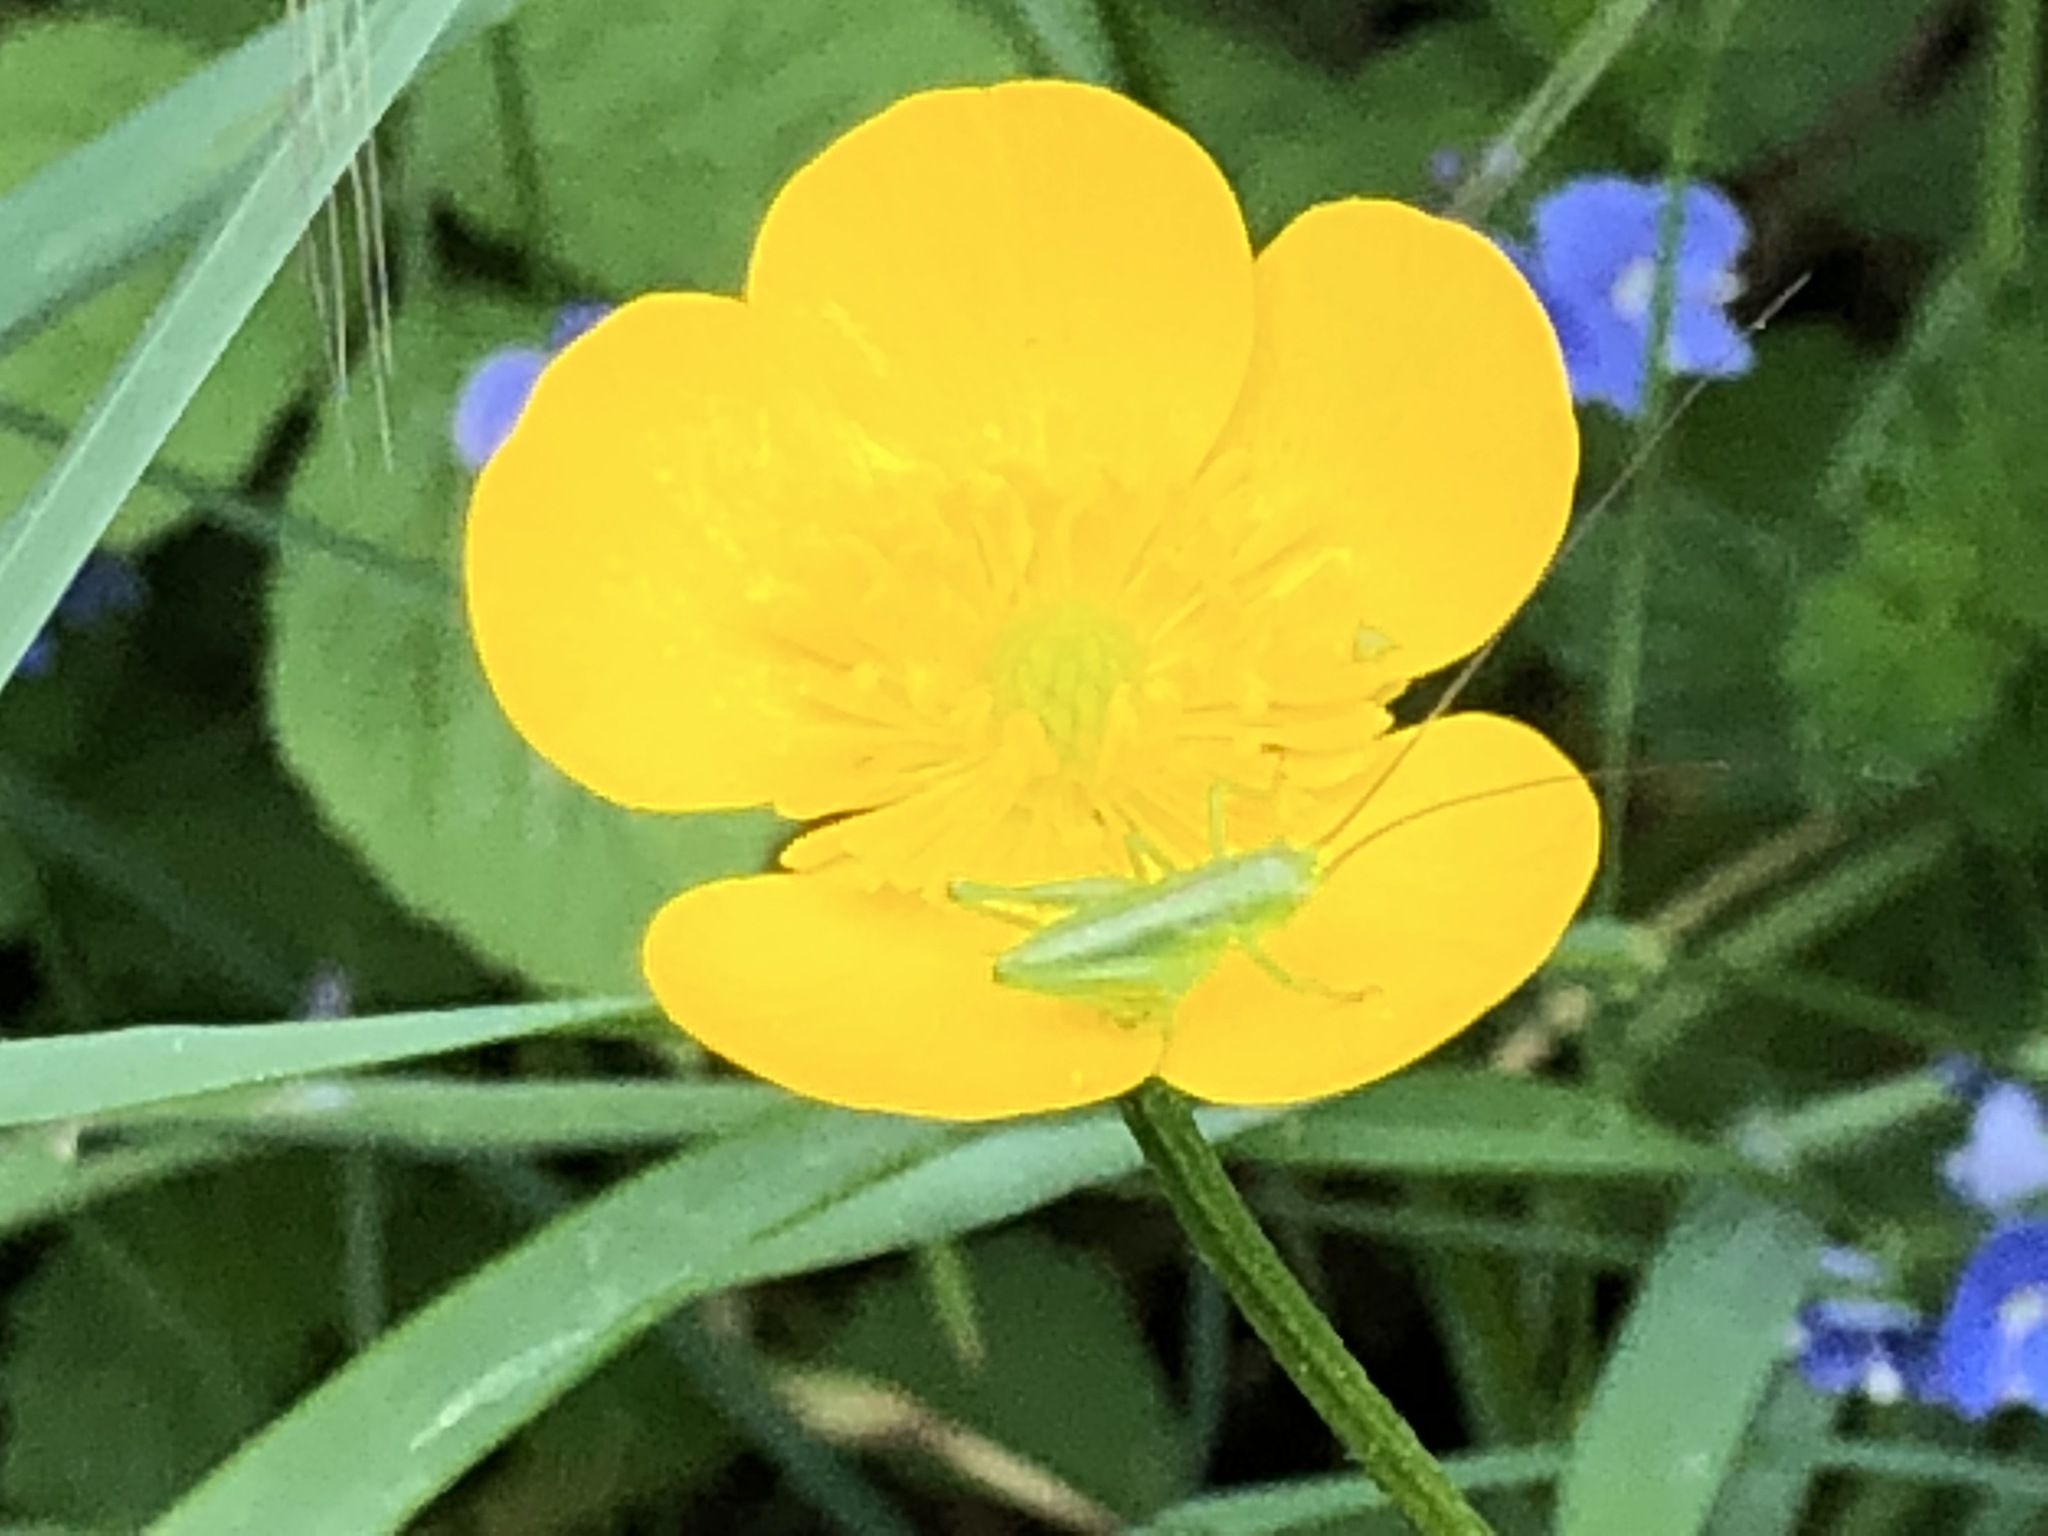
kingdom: Animalia
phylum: Arthropoda
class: Insecta
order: Orthoptera
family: Tettigoniidae
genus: Tettigonia
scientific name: Tettigonia viridissima
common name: Great green bush-cricket
